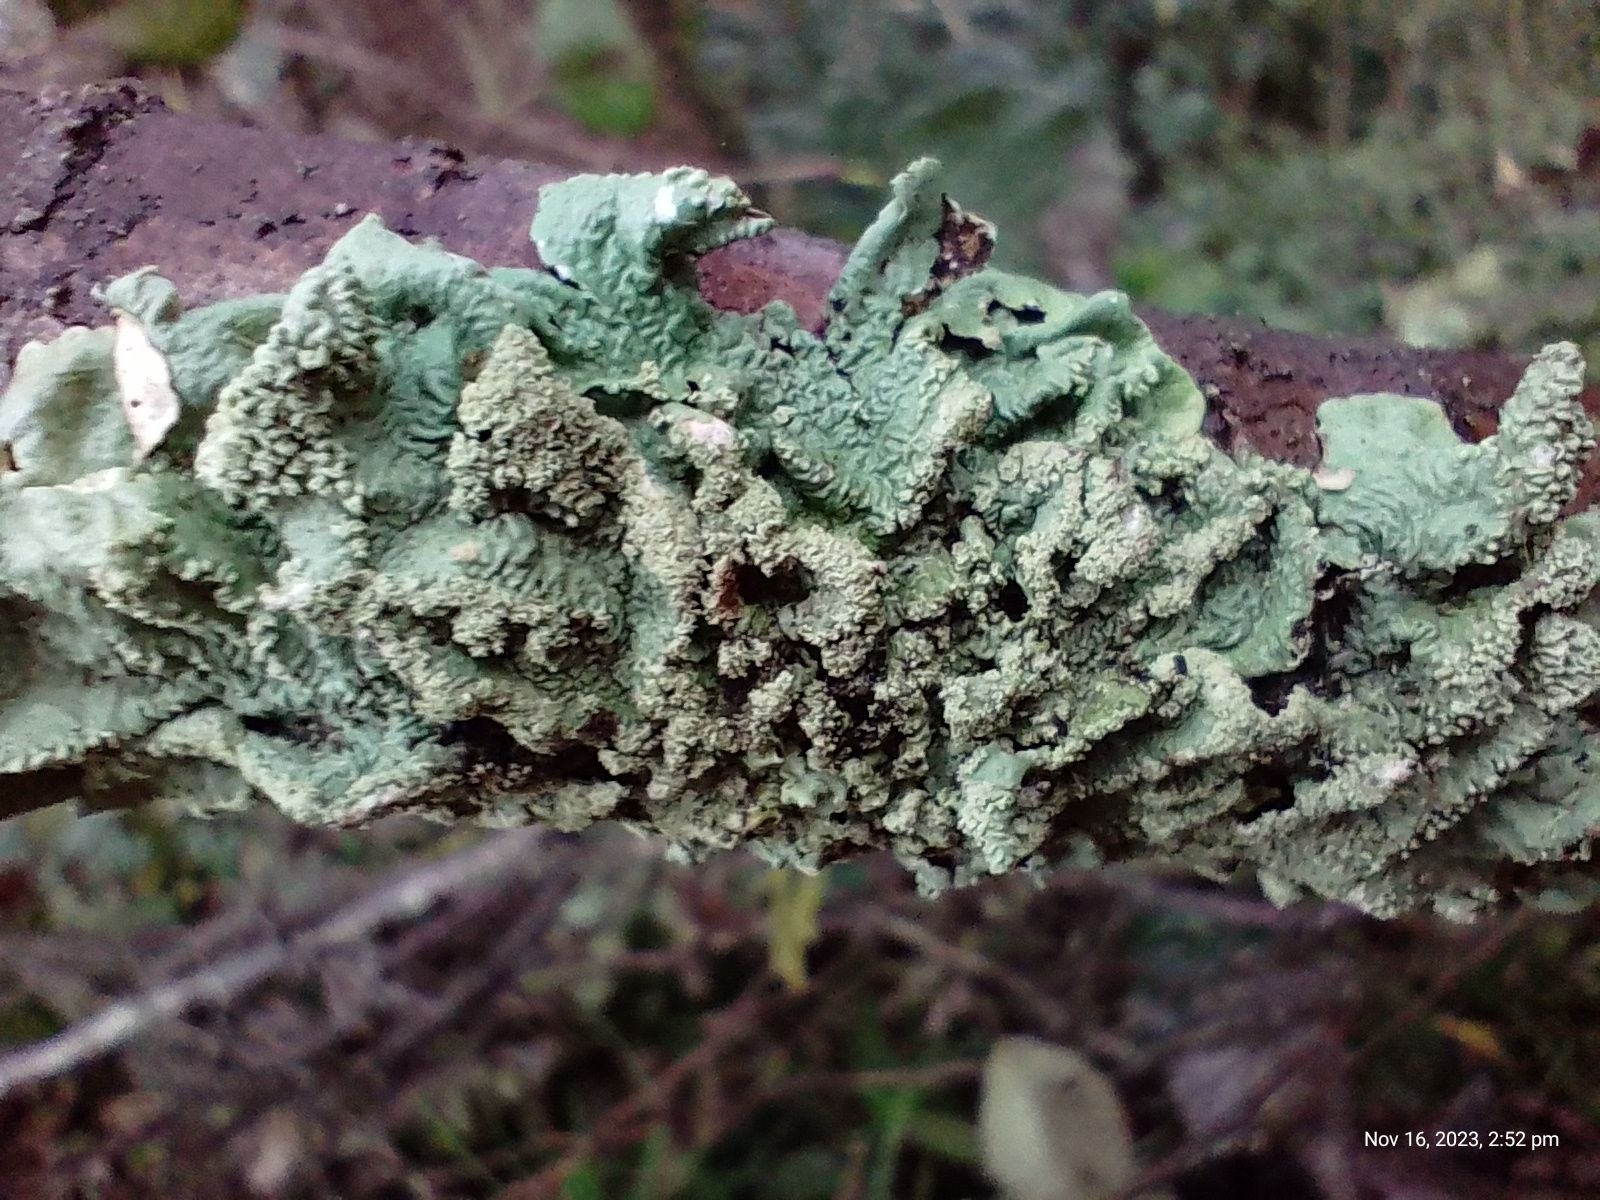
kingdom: Fungi
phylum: Ascomycota
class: Lecanoromycetes
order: Lecanorales
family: Parmeliaceae
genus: Flavoparmelia
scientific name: Flavoparmelia caperata
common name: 40-mile per hour lichen
